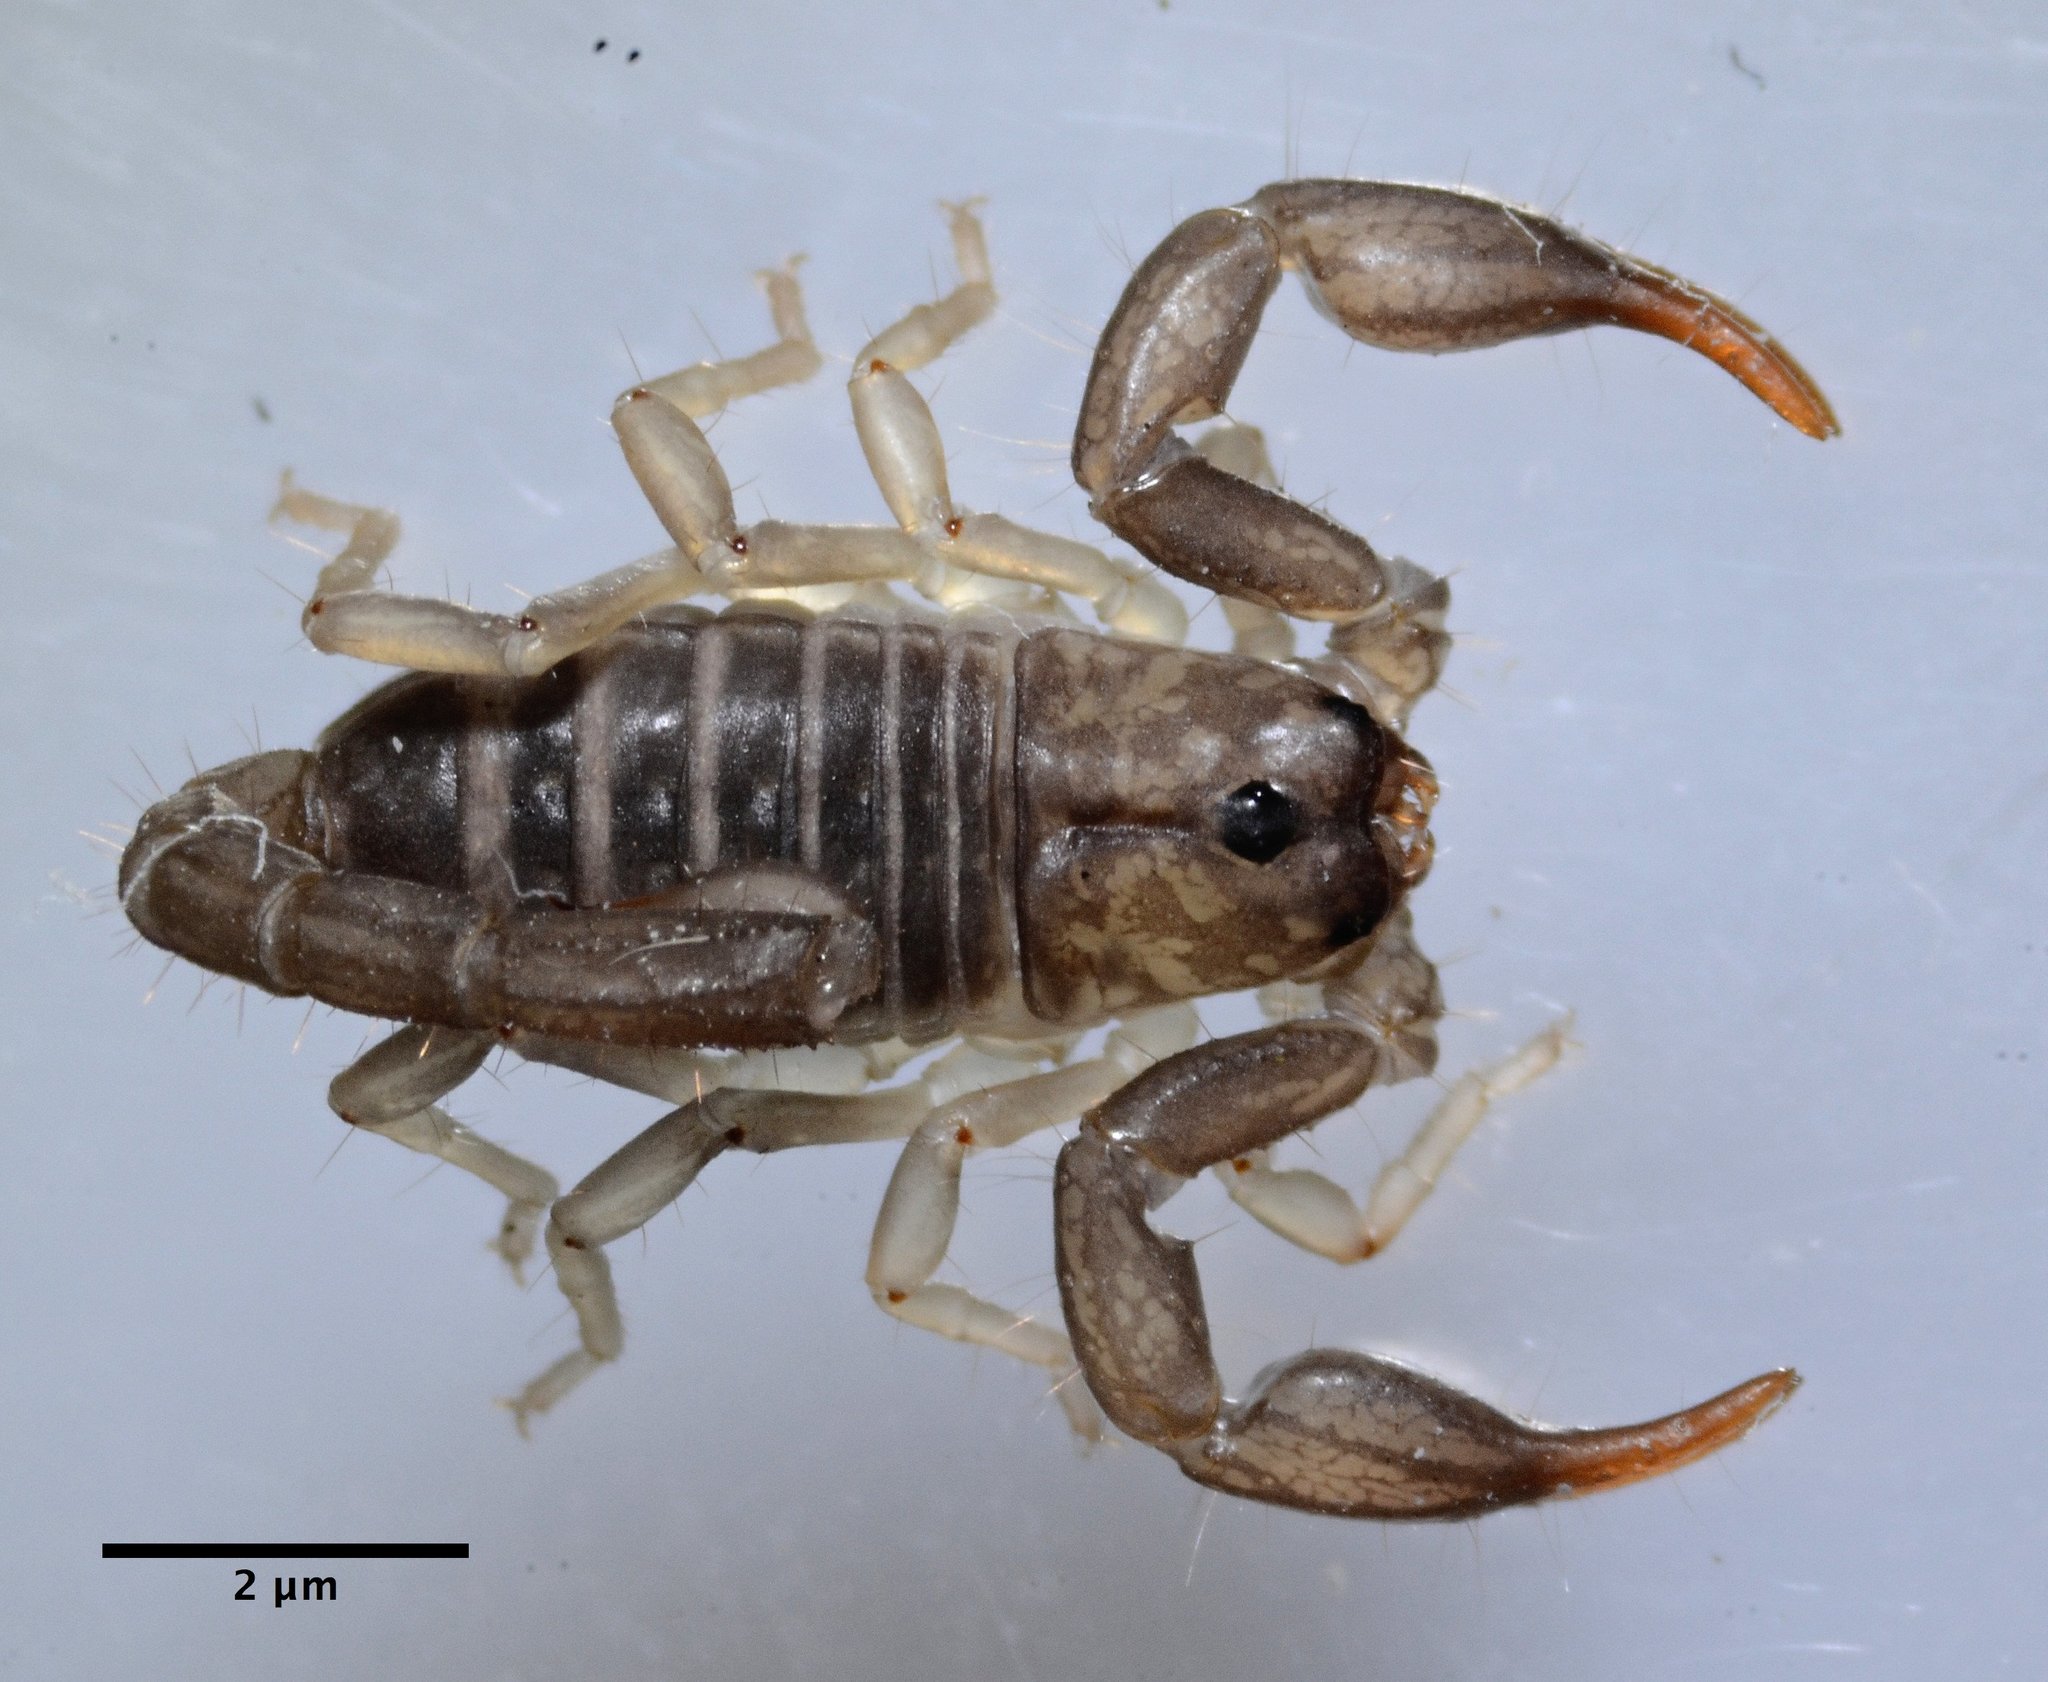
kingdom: Animalia
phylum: Arthropoda
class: Arachnida
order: Scorpiones
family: Chactidae
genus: Uroctonus
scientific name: Uroctonus mordax
